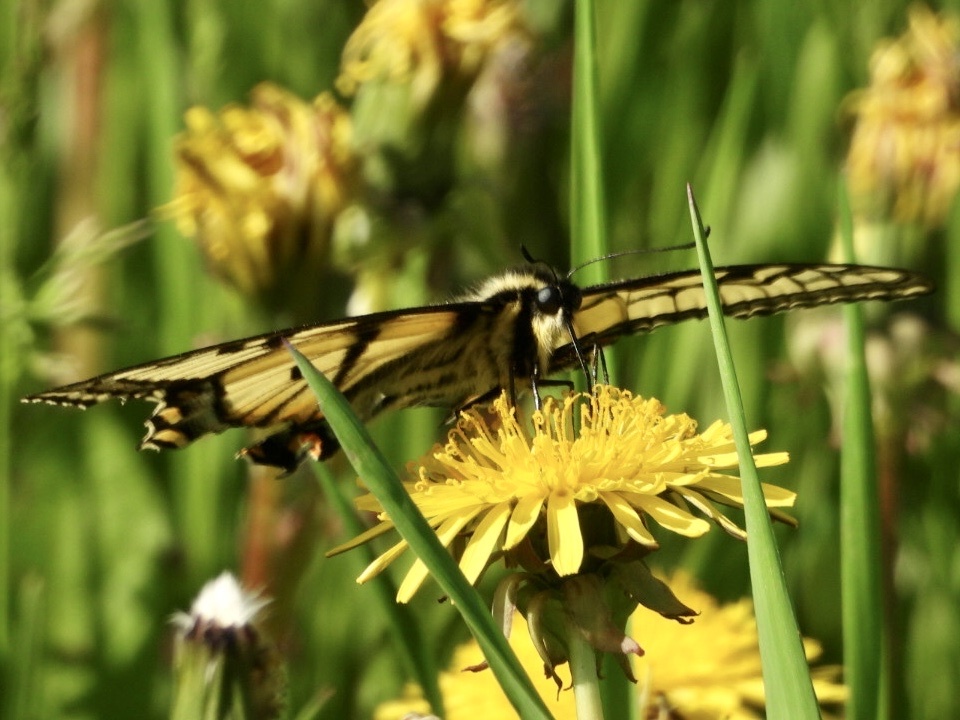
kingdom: Animalia
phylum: Arthropoda
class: Insecta
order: Lepidoptera
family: Papilionidae
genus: Papilio
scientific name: Papilio canadensis
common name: Canadian tiger swallowtail
